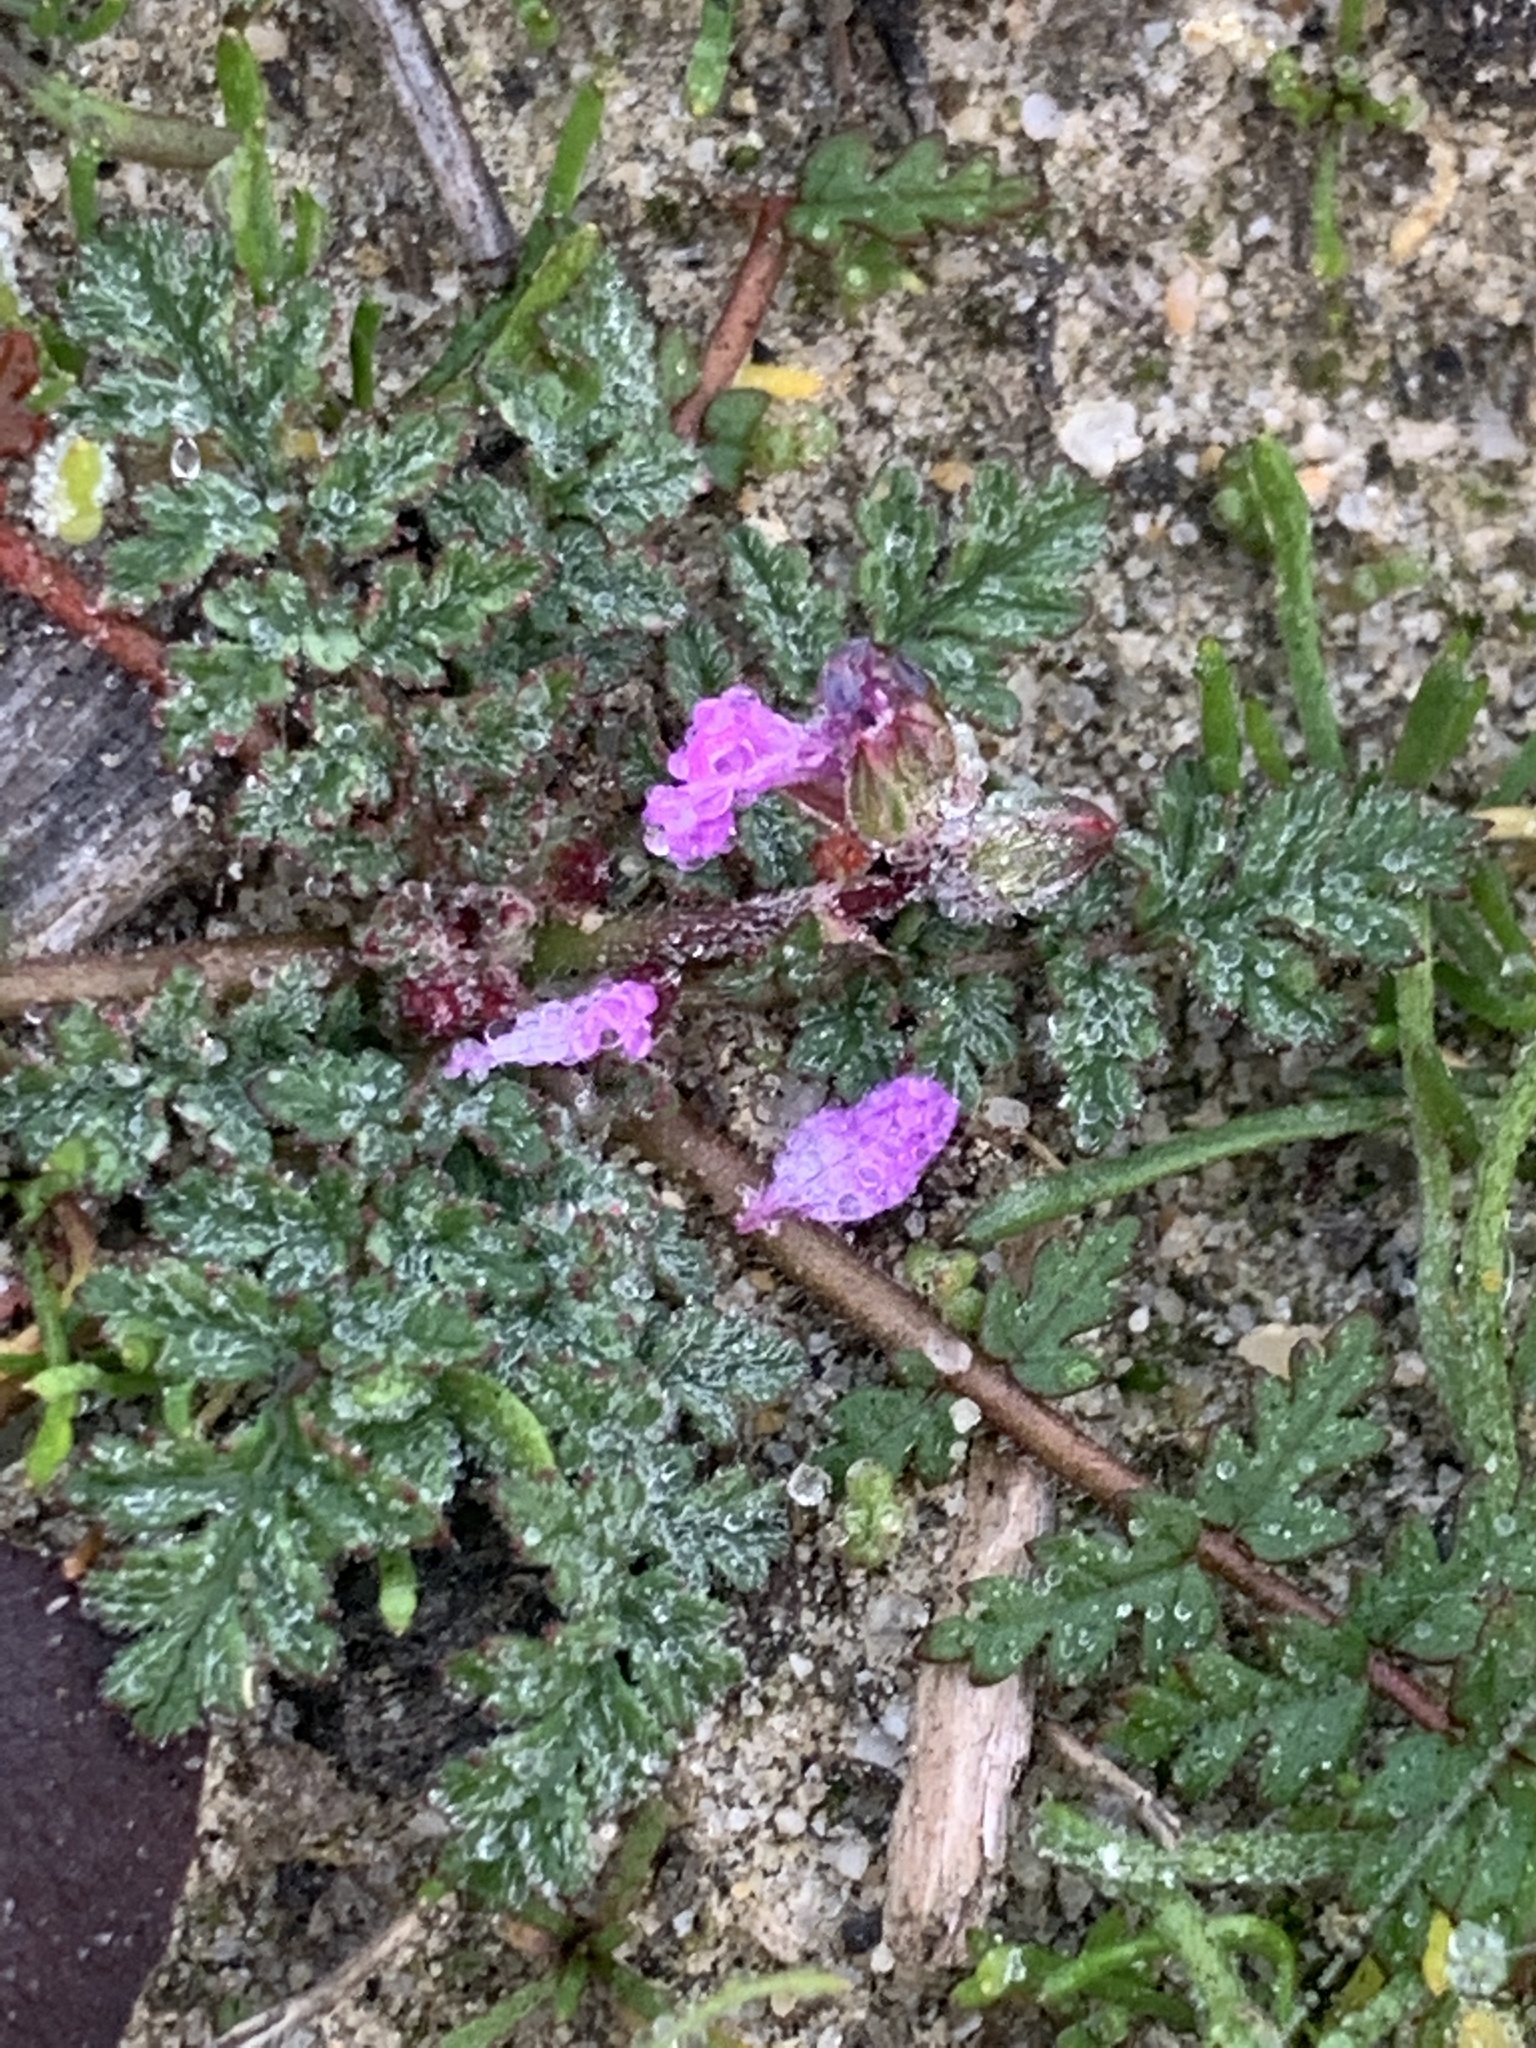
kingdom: Plantae
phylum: Tracheophyta
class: Magnoliopsida
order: Geraniales
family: Geraniaceae
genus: Erodium
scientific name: Erodium cicutarium
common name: Common stork's-bill
